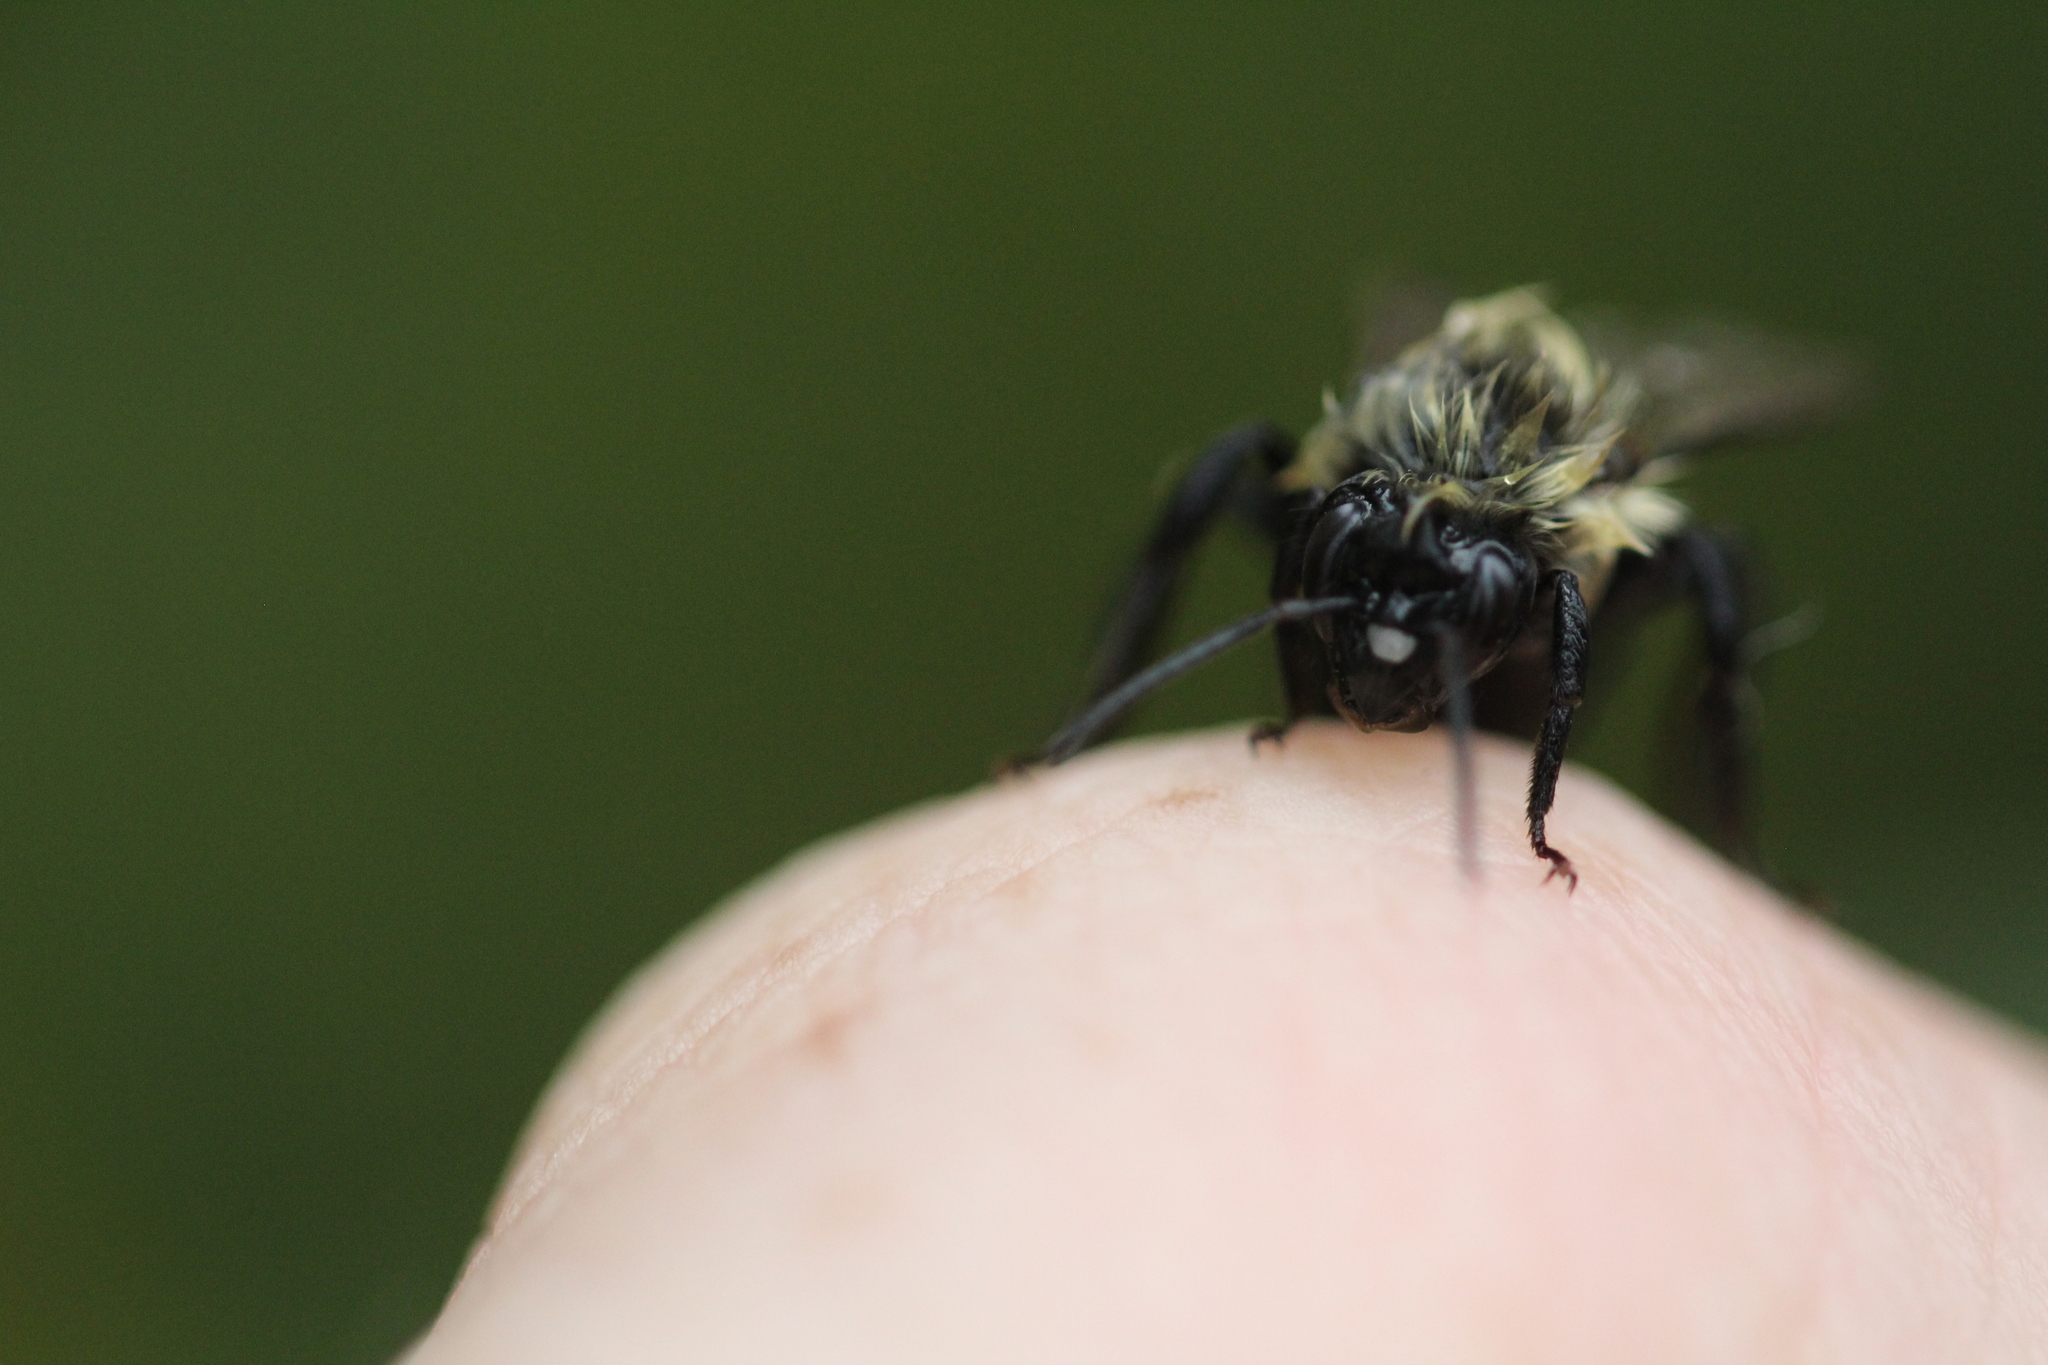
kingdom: Animalia
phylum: Arthropoda
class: Insecta
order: Hymenoptera
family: Apidae
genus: Bombus
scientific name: Bombus impatiens
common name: Common eastern bumble bee
